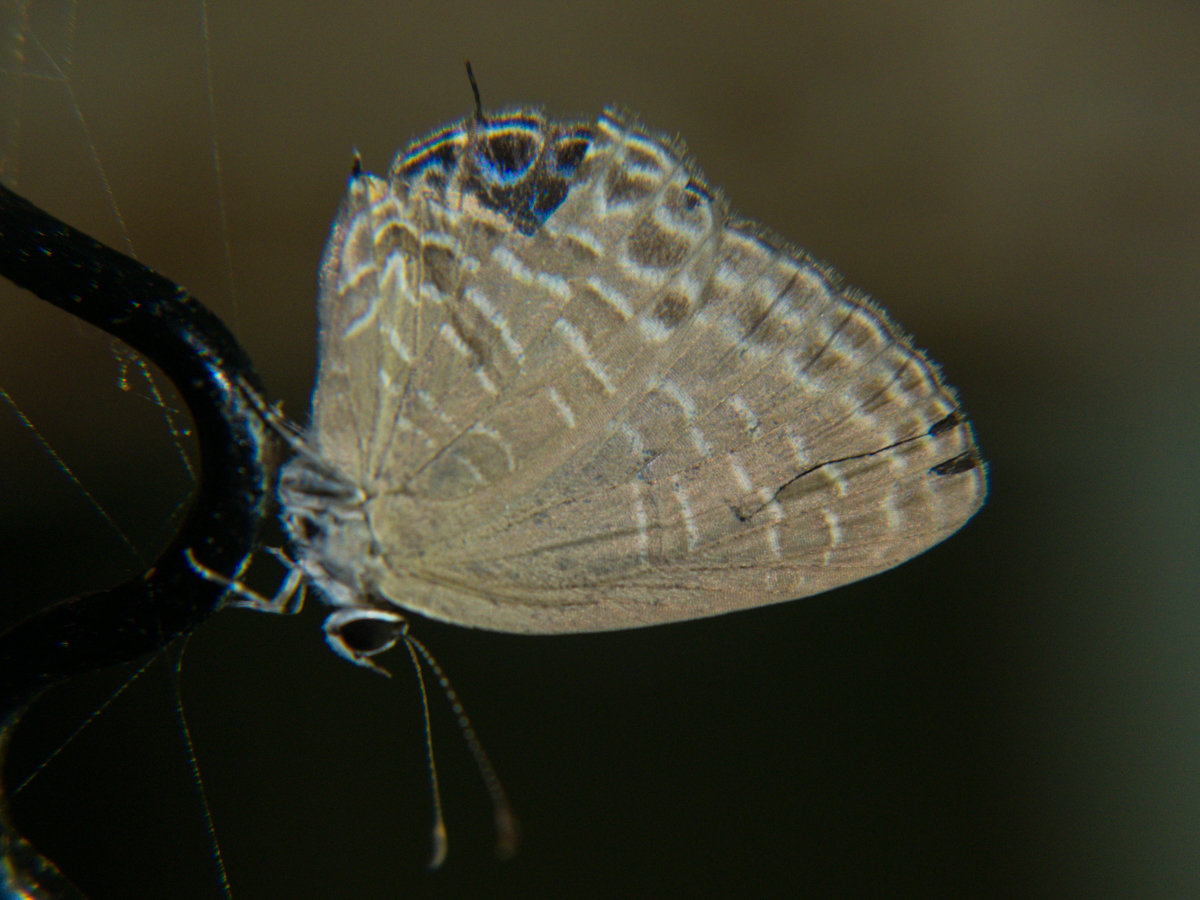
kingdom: Animalia
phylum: Arthropoda
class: Insecta
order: Lepidoptera
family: Lycaenidae
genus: Jamides
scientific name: Jamides bochus
